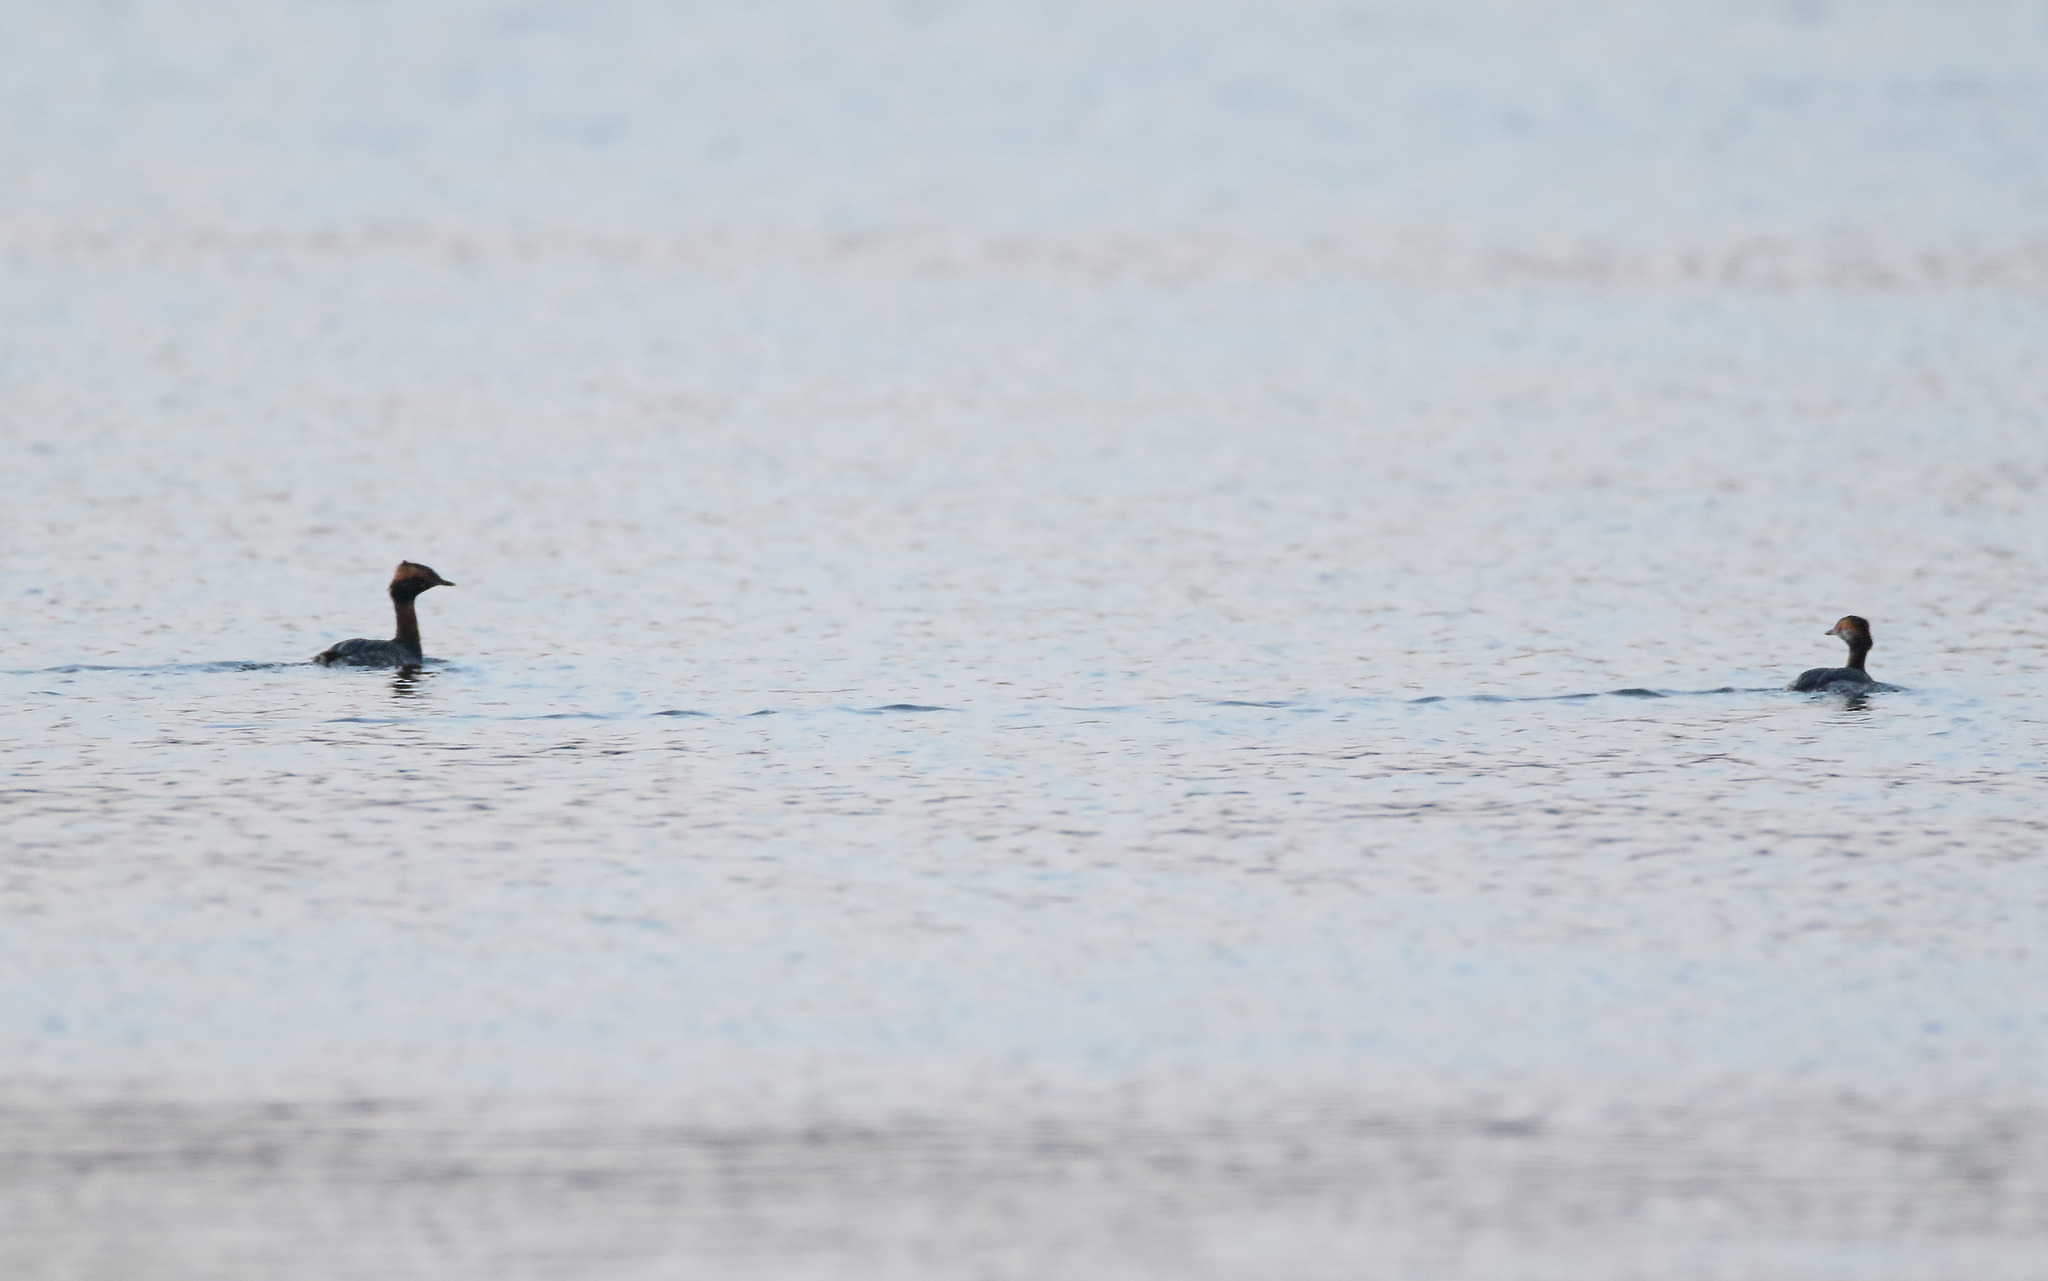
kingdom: Animalia
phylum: Chordata
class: Aves
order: Podicipediformes
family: Podicipedidae
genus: Podiceps
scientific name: Podiceps auritus
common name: Horned grebe
